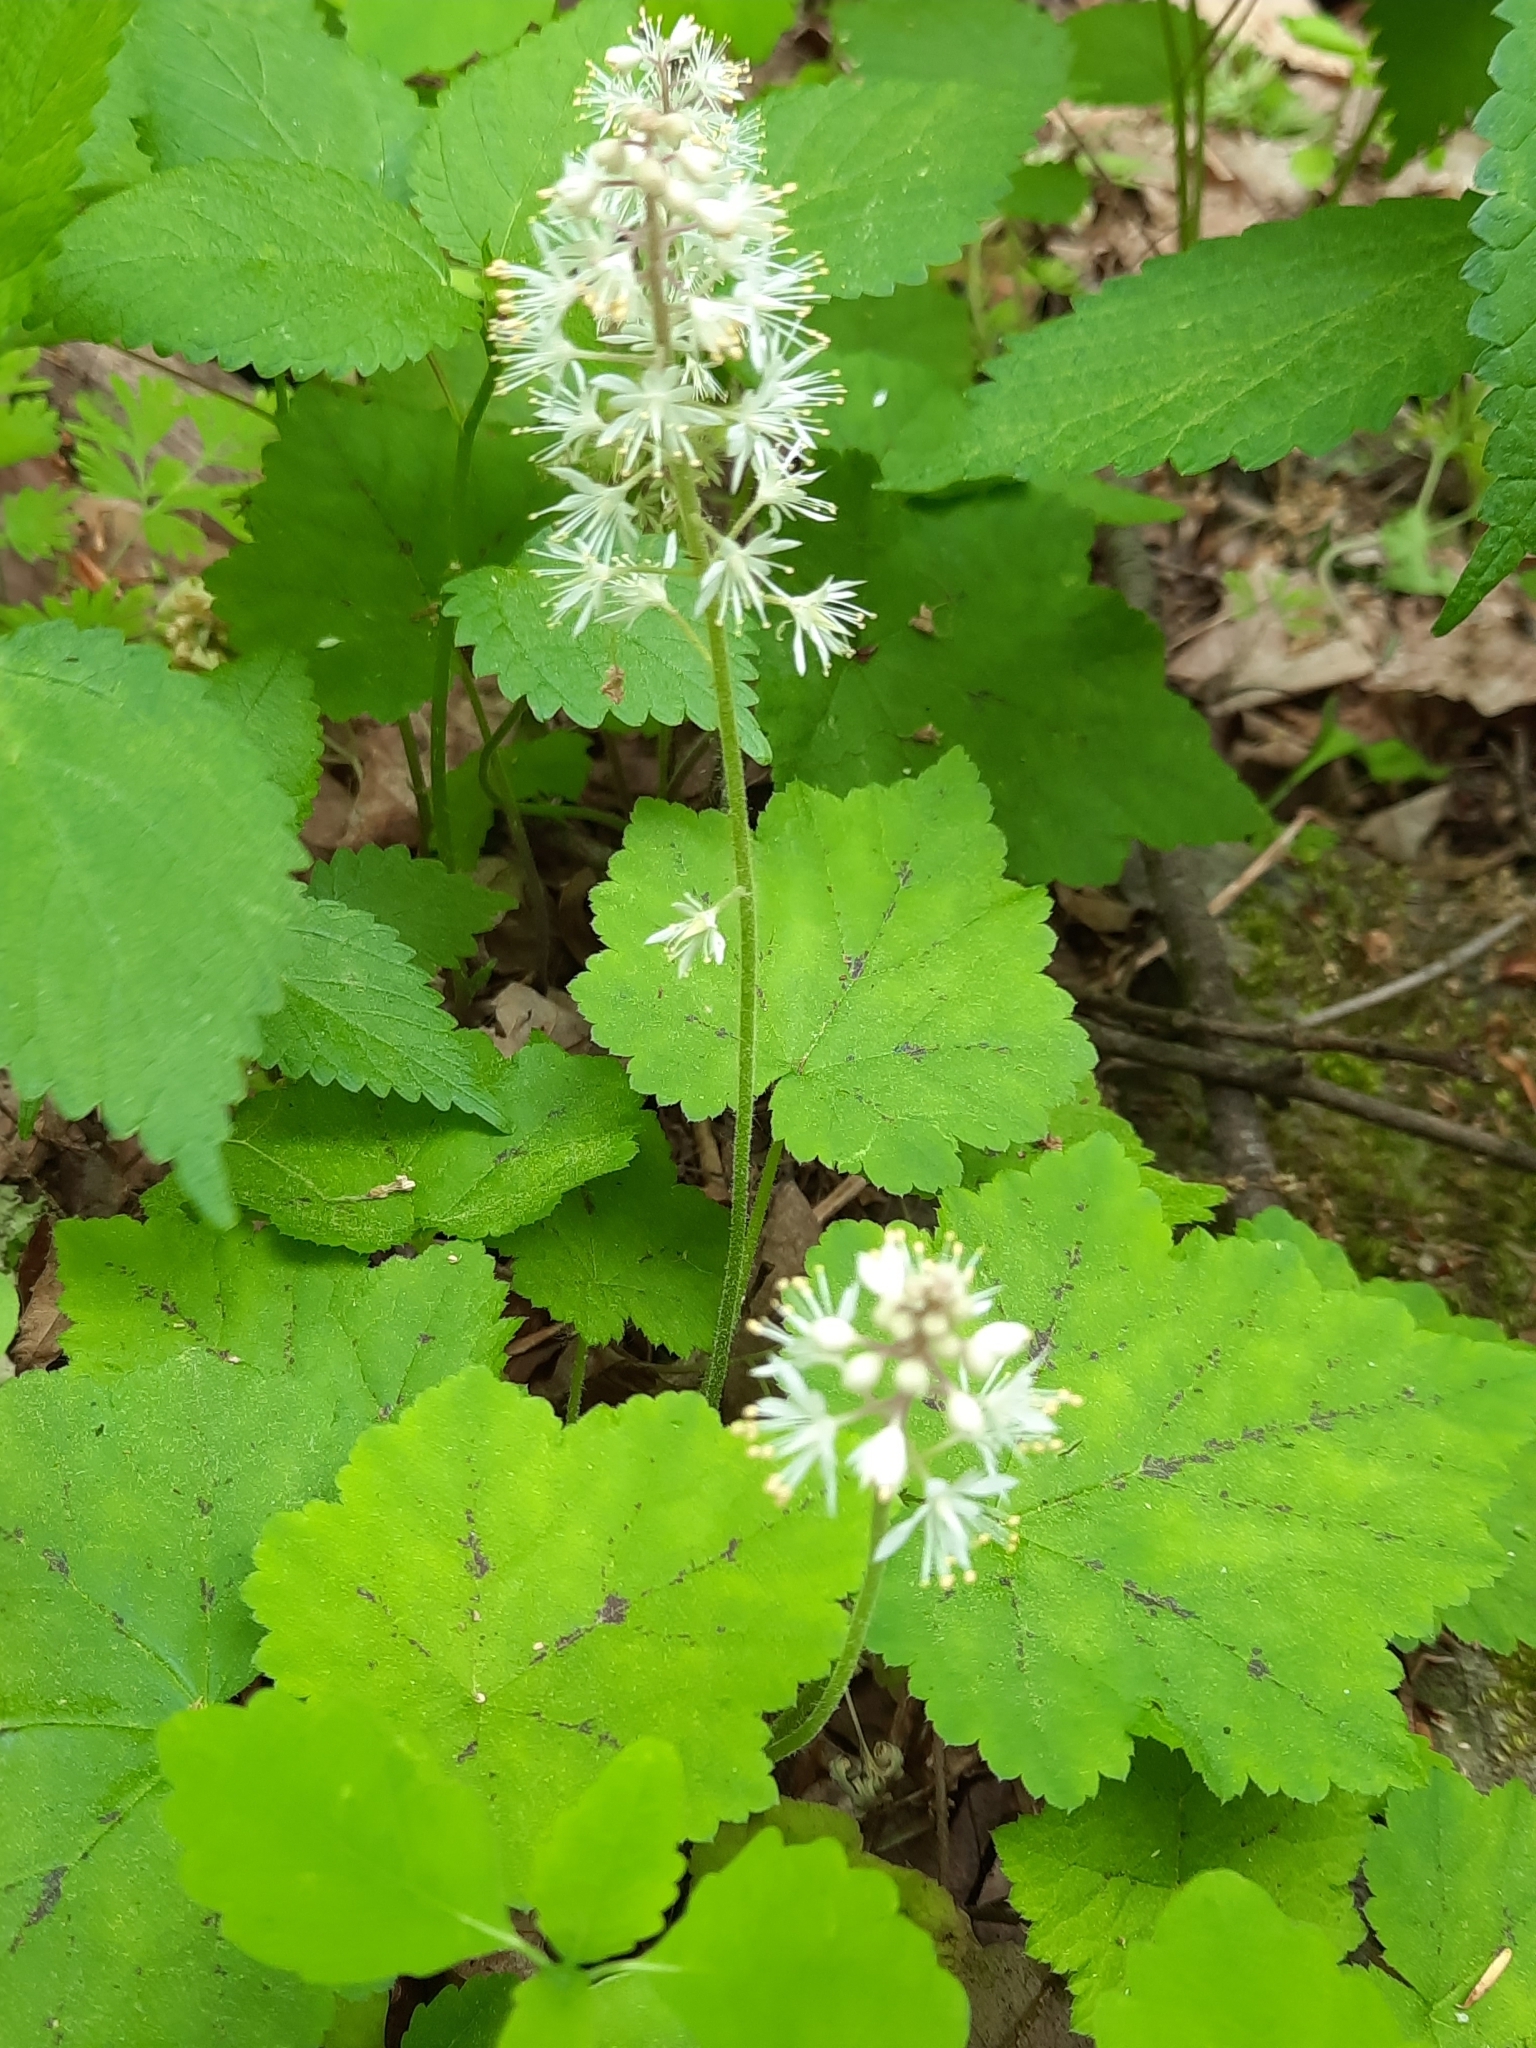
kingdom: Plantae
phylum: Tracheophyta
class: Magnoliopsida
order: Saxifragales
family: Saxifragaceae
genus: Tiarella
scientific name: Tiarella stolonifera
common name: Stoloniferous foamflower
